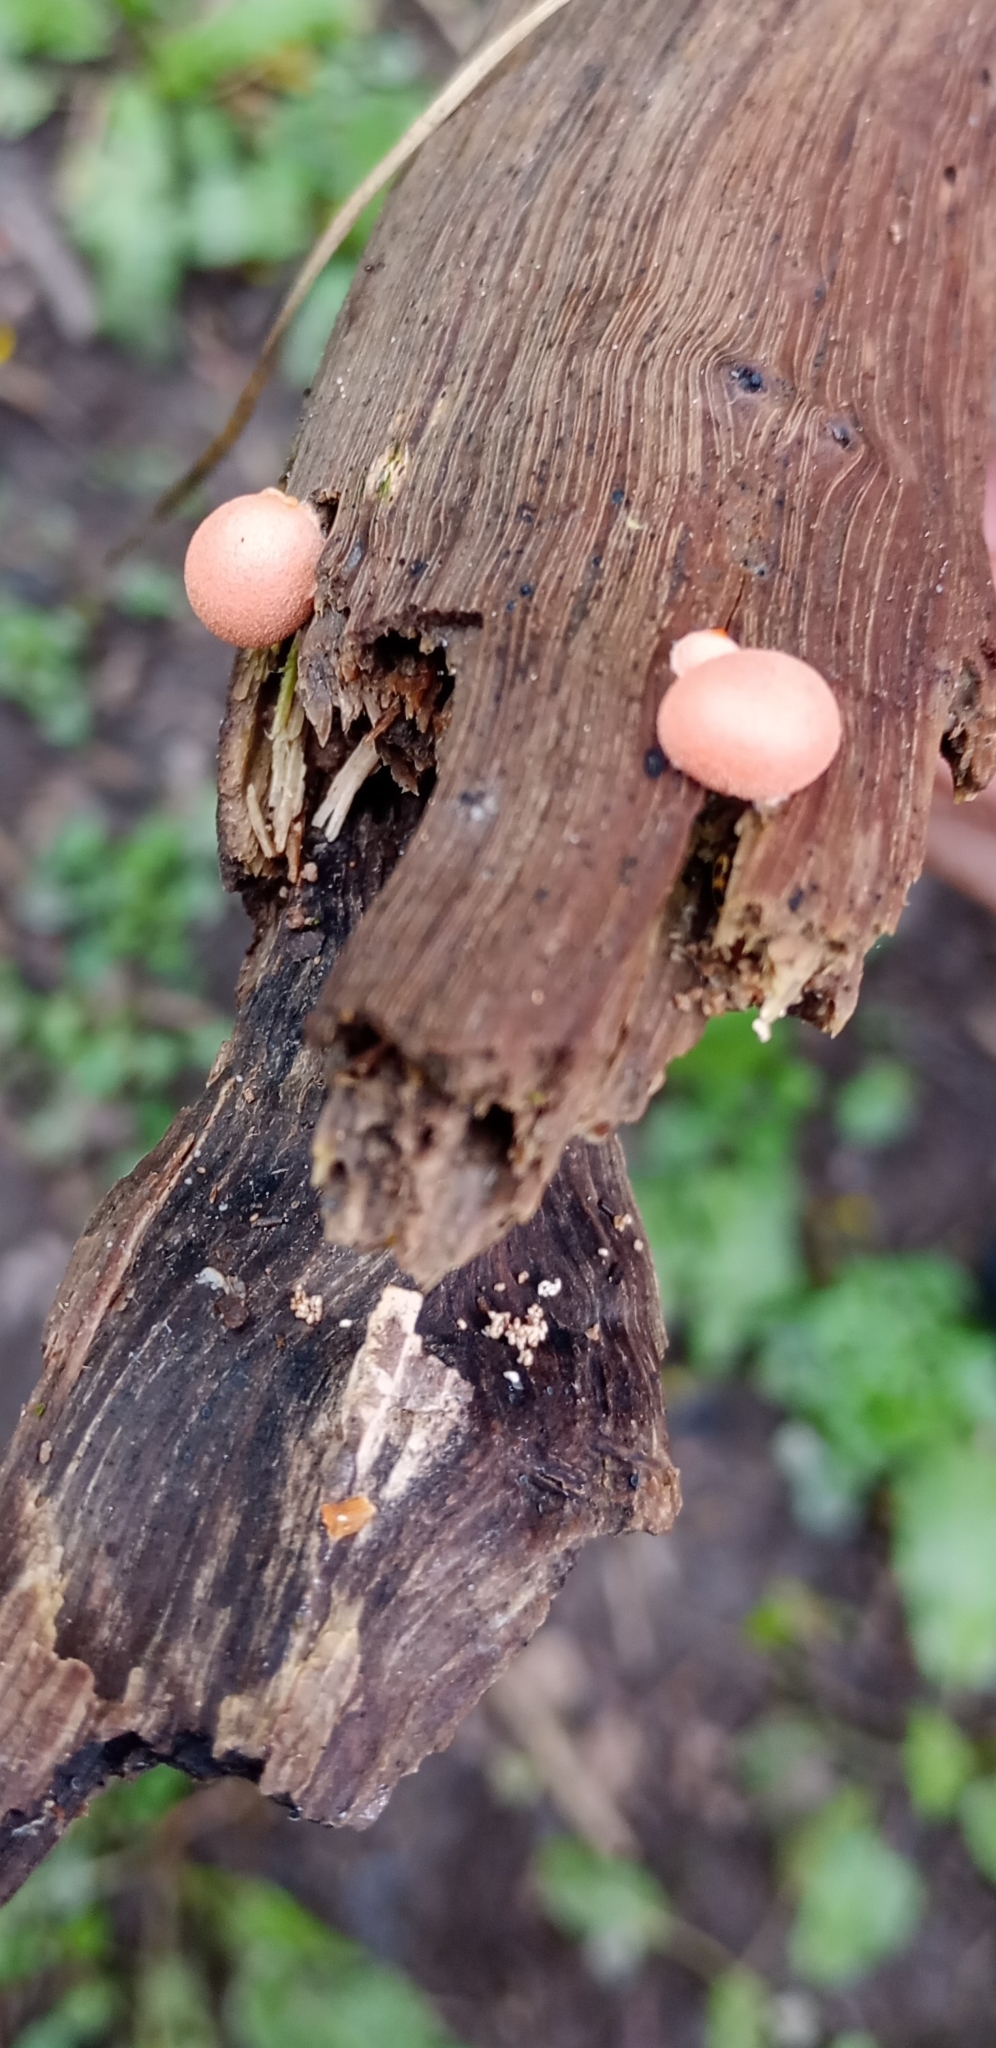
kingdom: Protozoa
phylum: Mycetozoa
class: Myxomycetes
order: Cribrariales
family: Tubiferaceae
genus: Lycogala
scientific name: Lycogala epidendrum
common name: Wolf's milk
